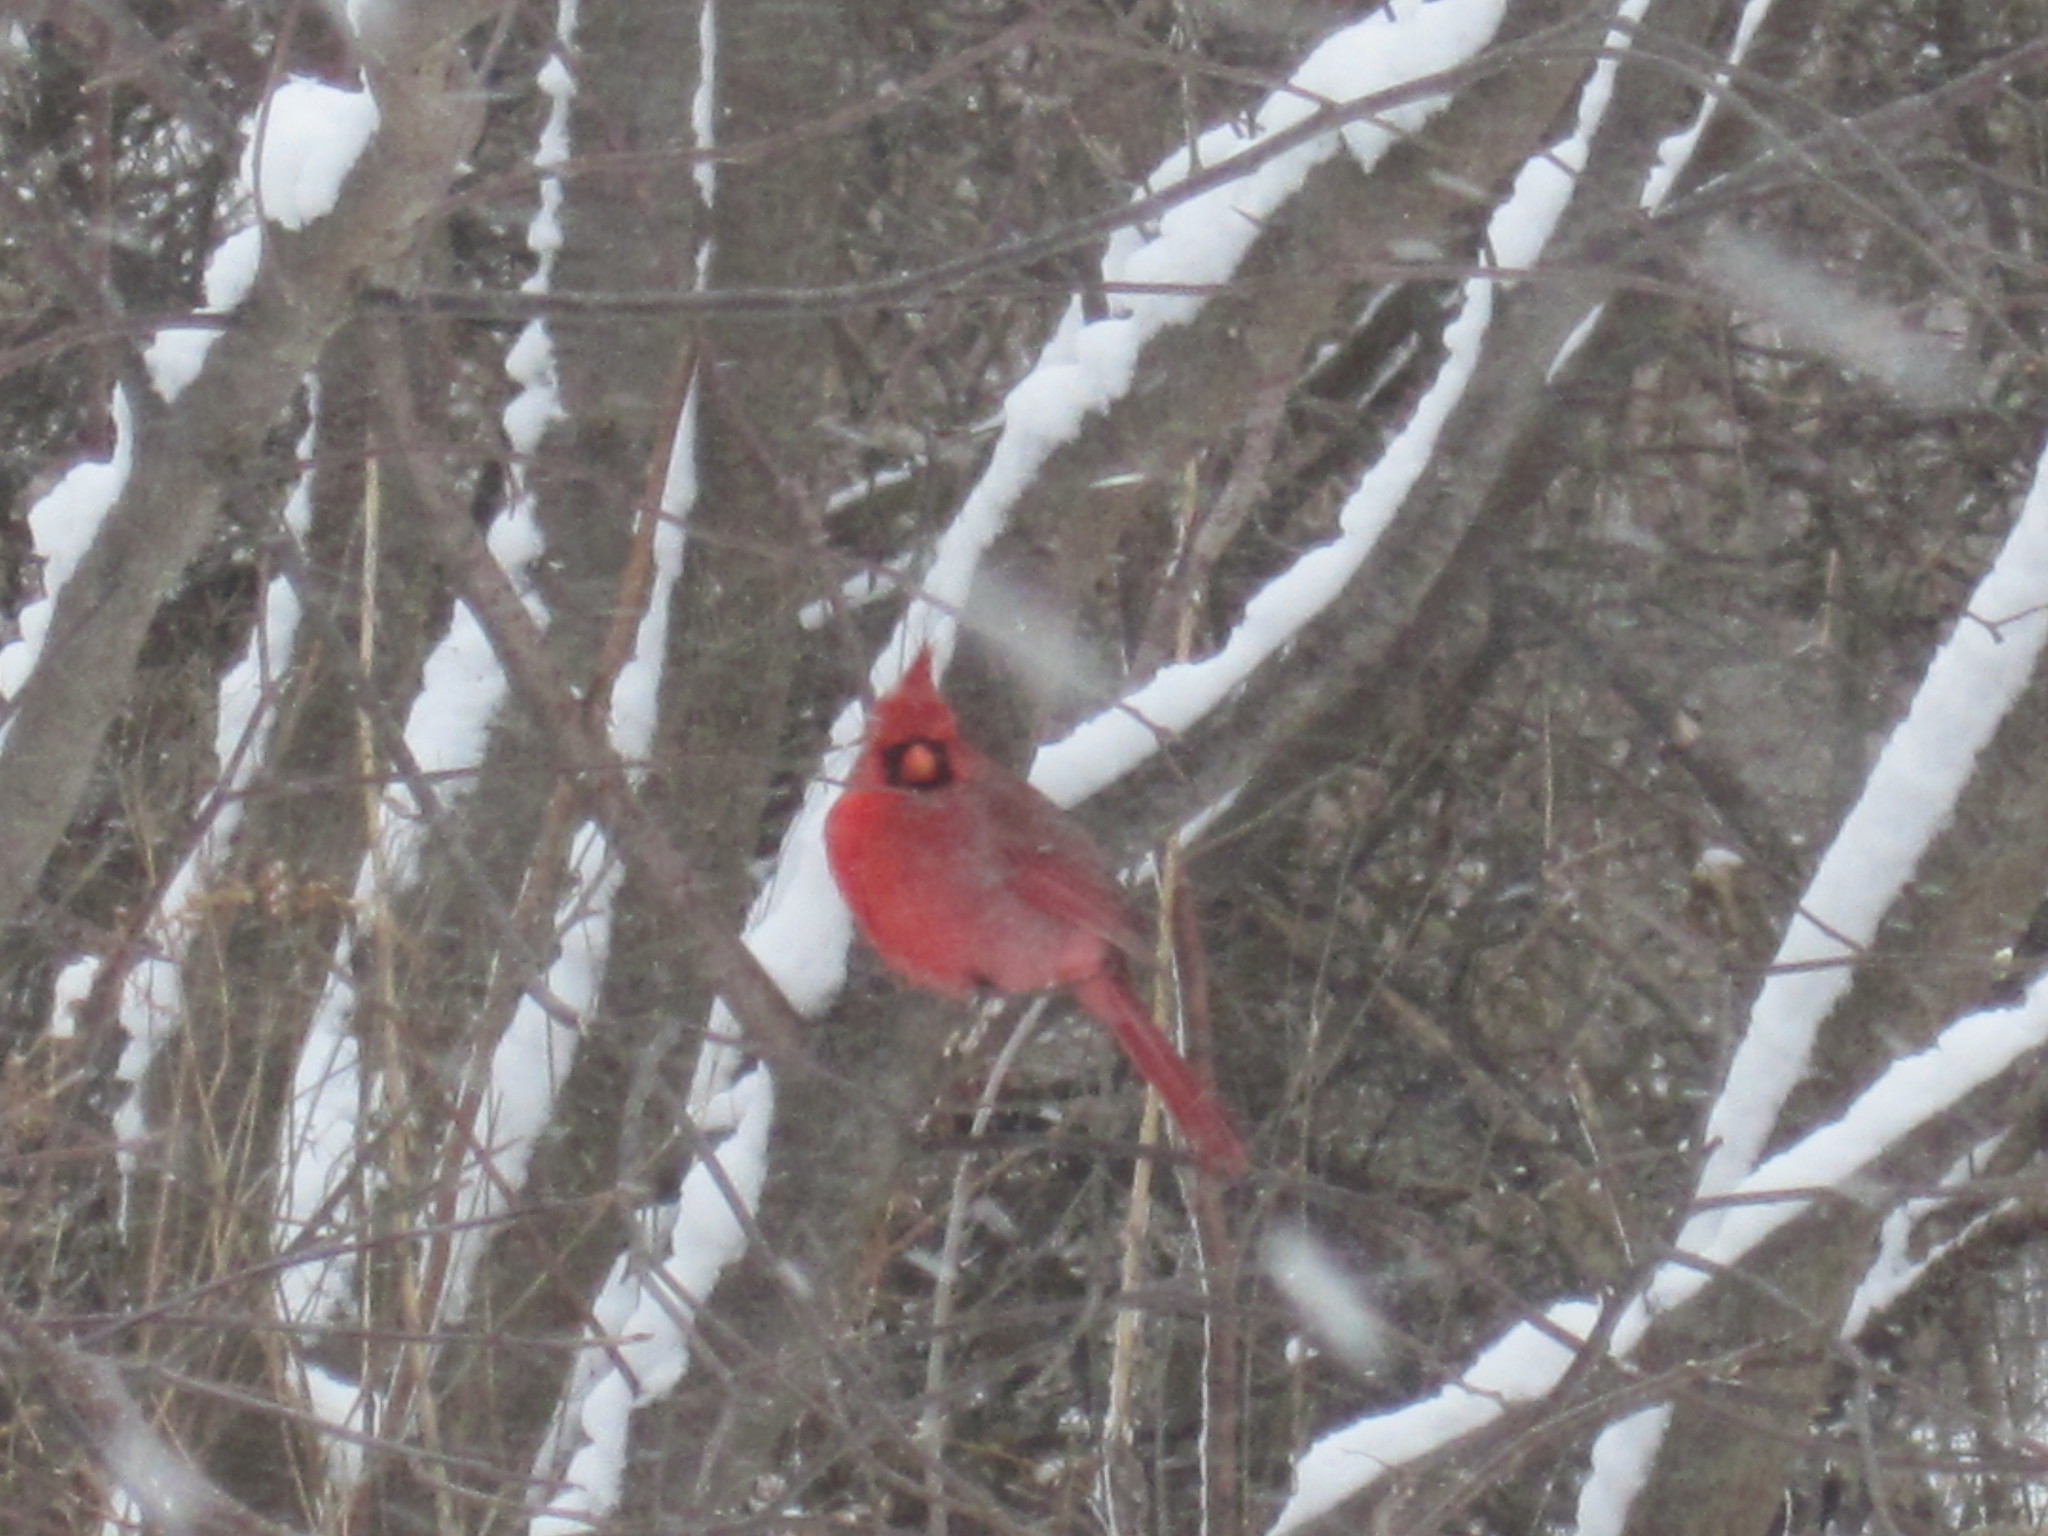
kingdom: Animalia
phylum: Chordata
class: Aves
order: Passeriformes
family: Cardinalidae
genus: Cardinalis
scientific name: Cardinalis cardinalis
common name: Northern cardinal
